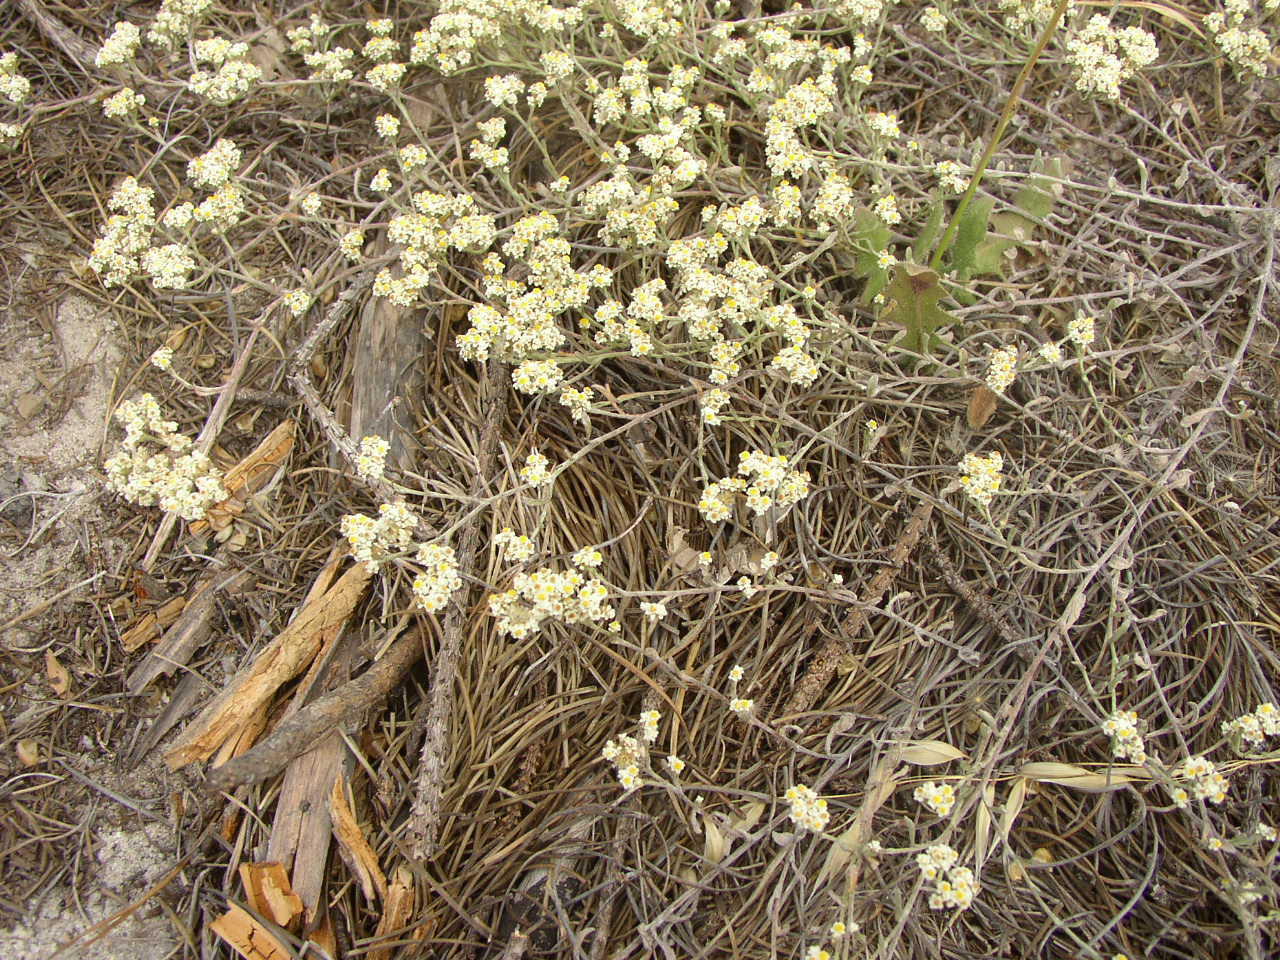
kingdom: Plantae
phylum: Tracheophyta
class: Magnoliopsida
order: Asterales
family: Asteraceae
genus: Helichrysum
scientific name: Helichrysum indicum
